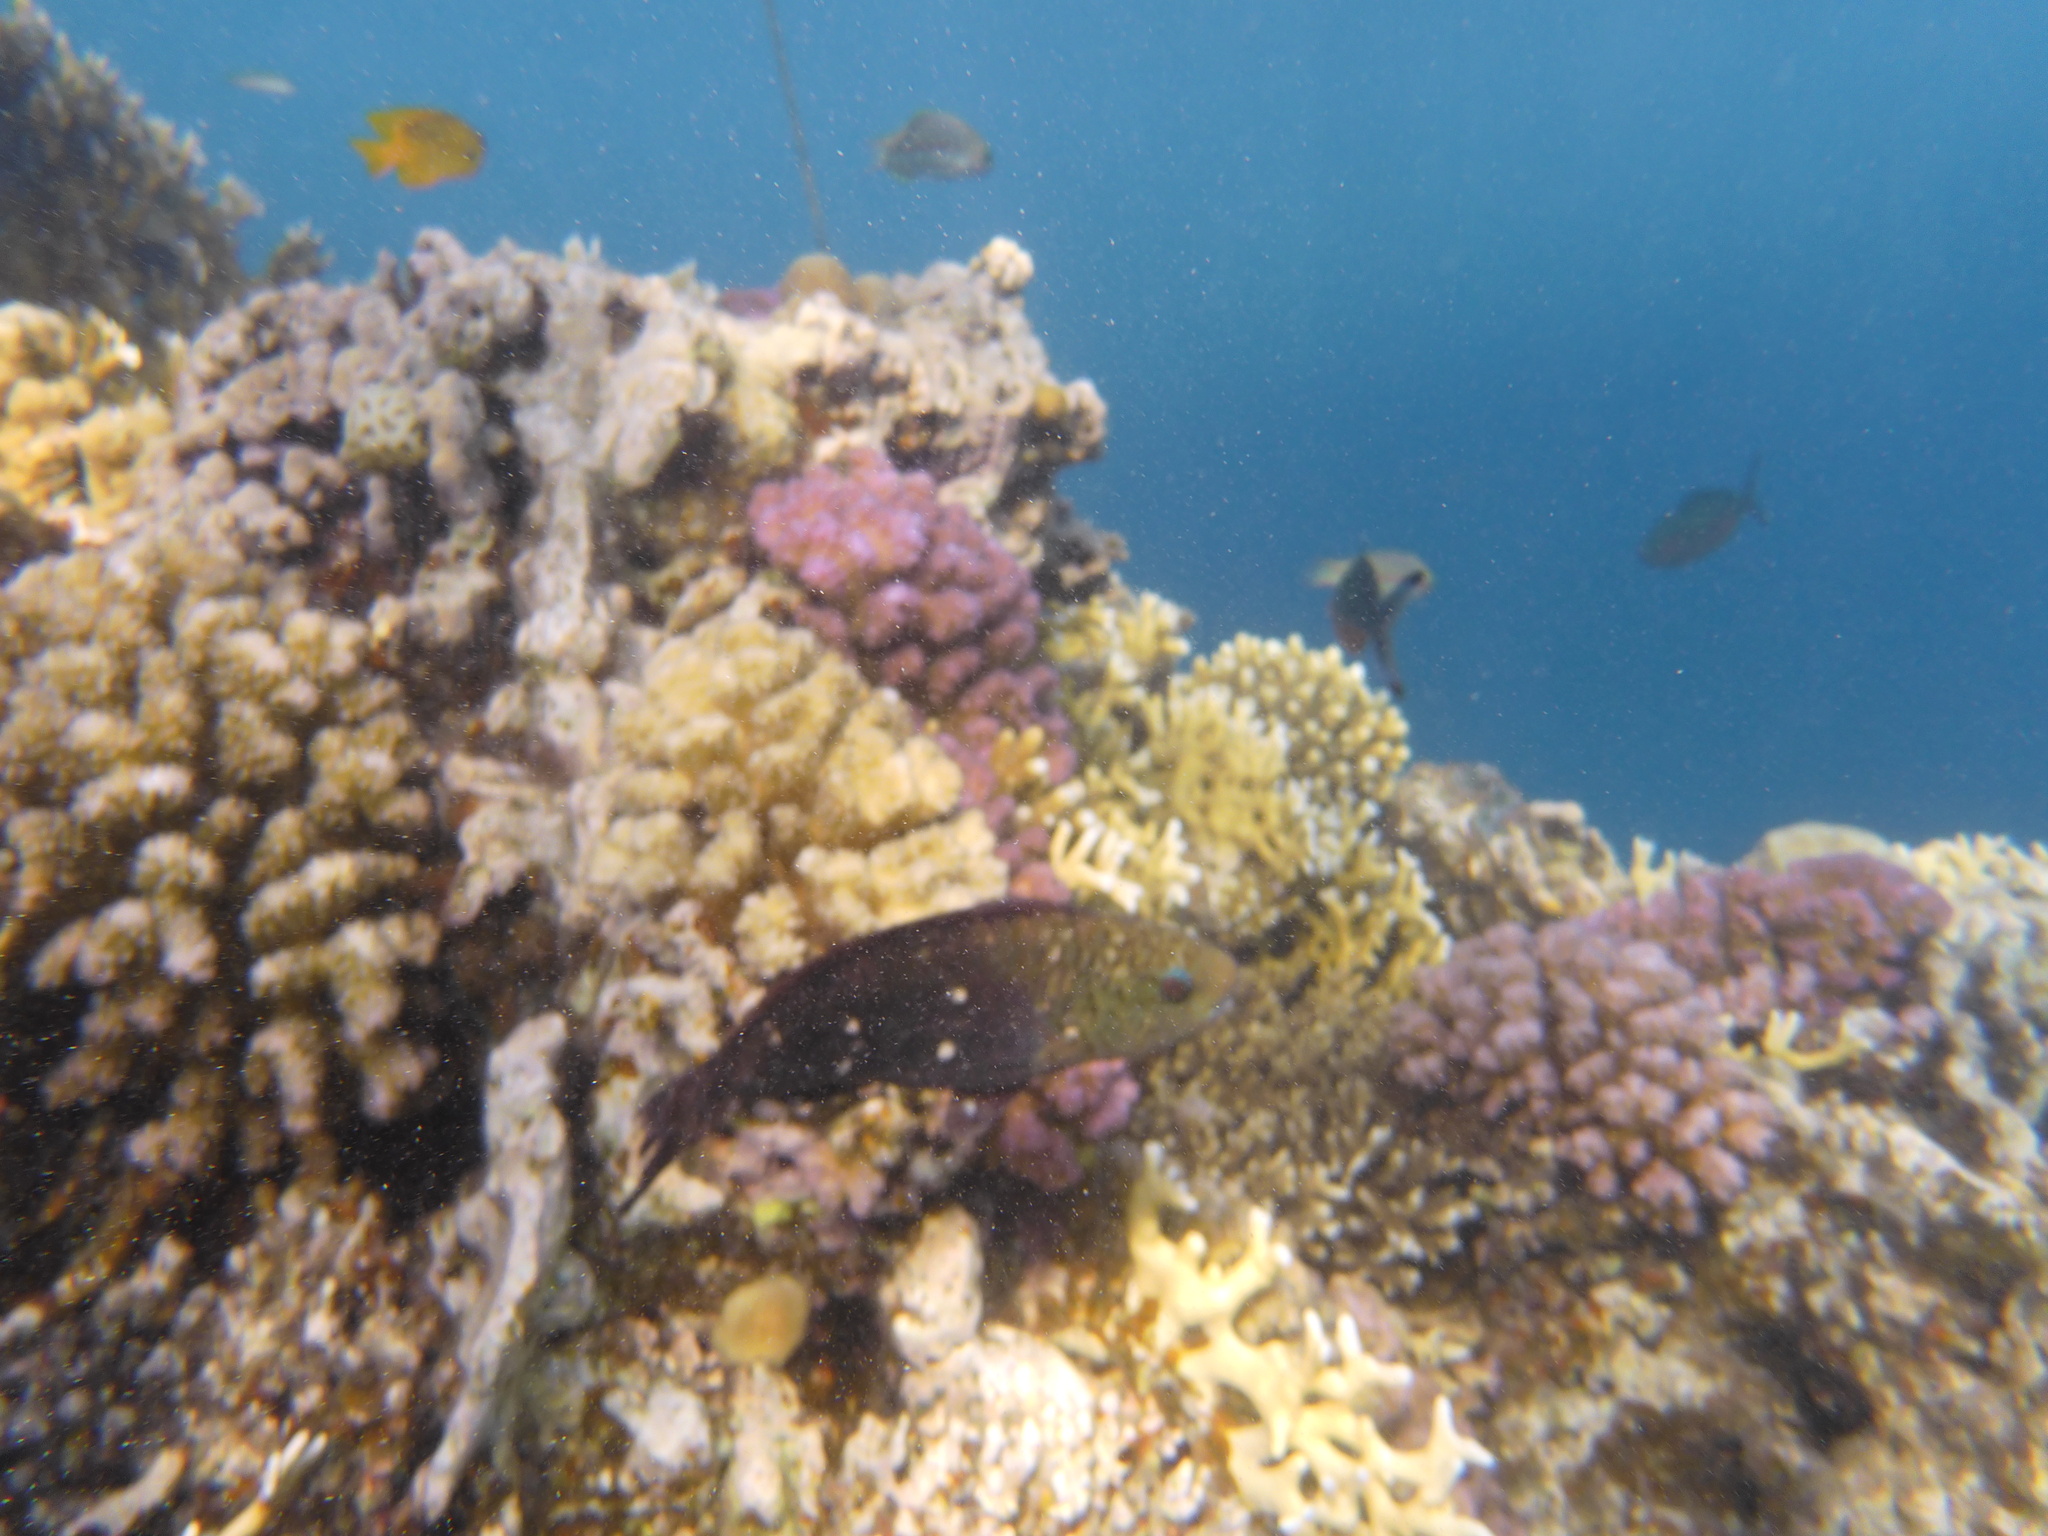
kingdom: Animalia
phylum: Chordata
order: Perciformes
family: Scaridae
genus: Chlorurus
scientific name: Chlorurus sordidus
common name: Bullethead parrotfish
